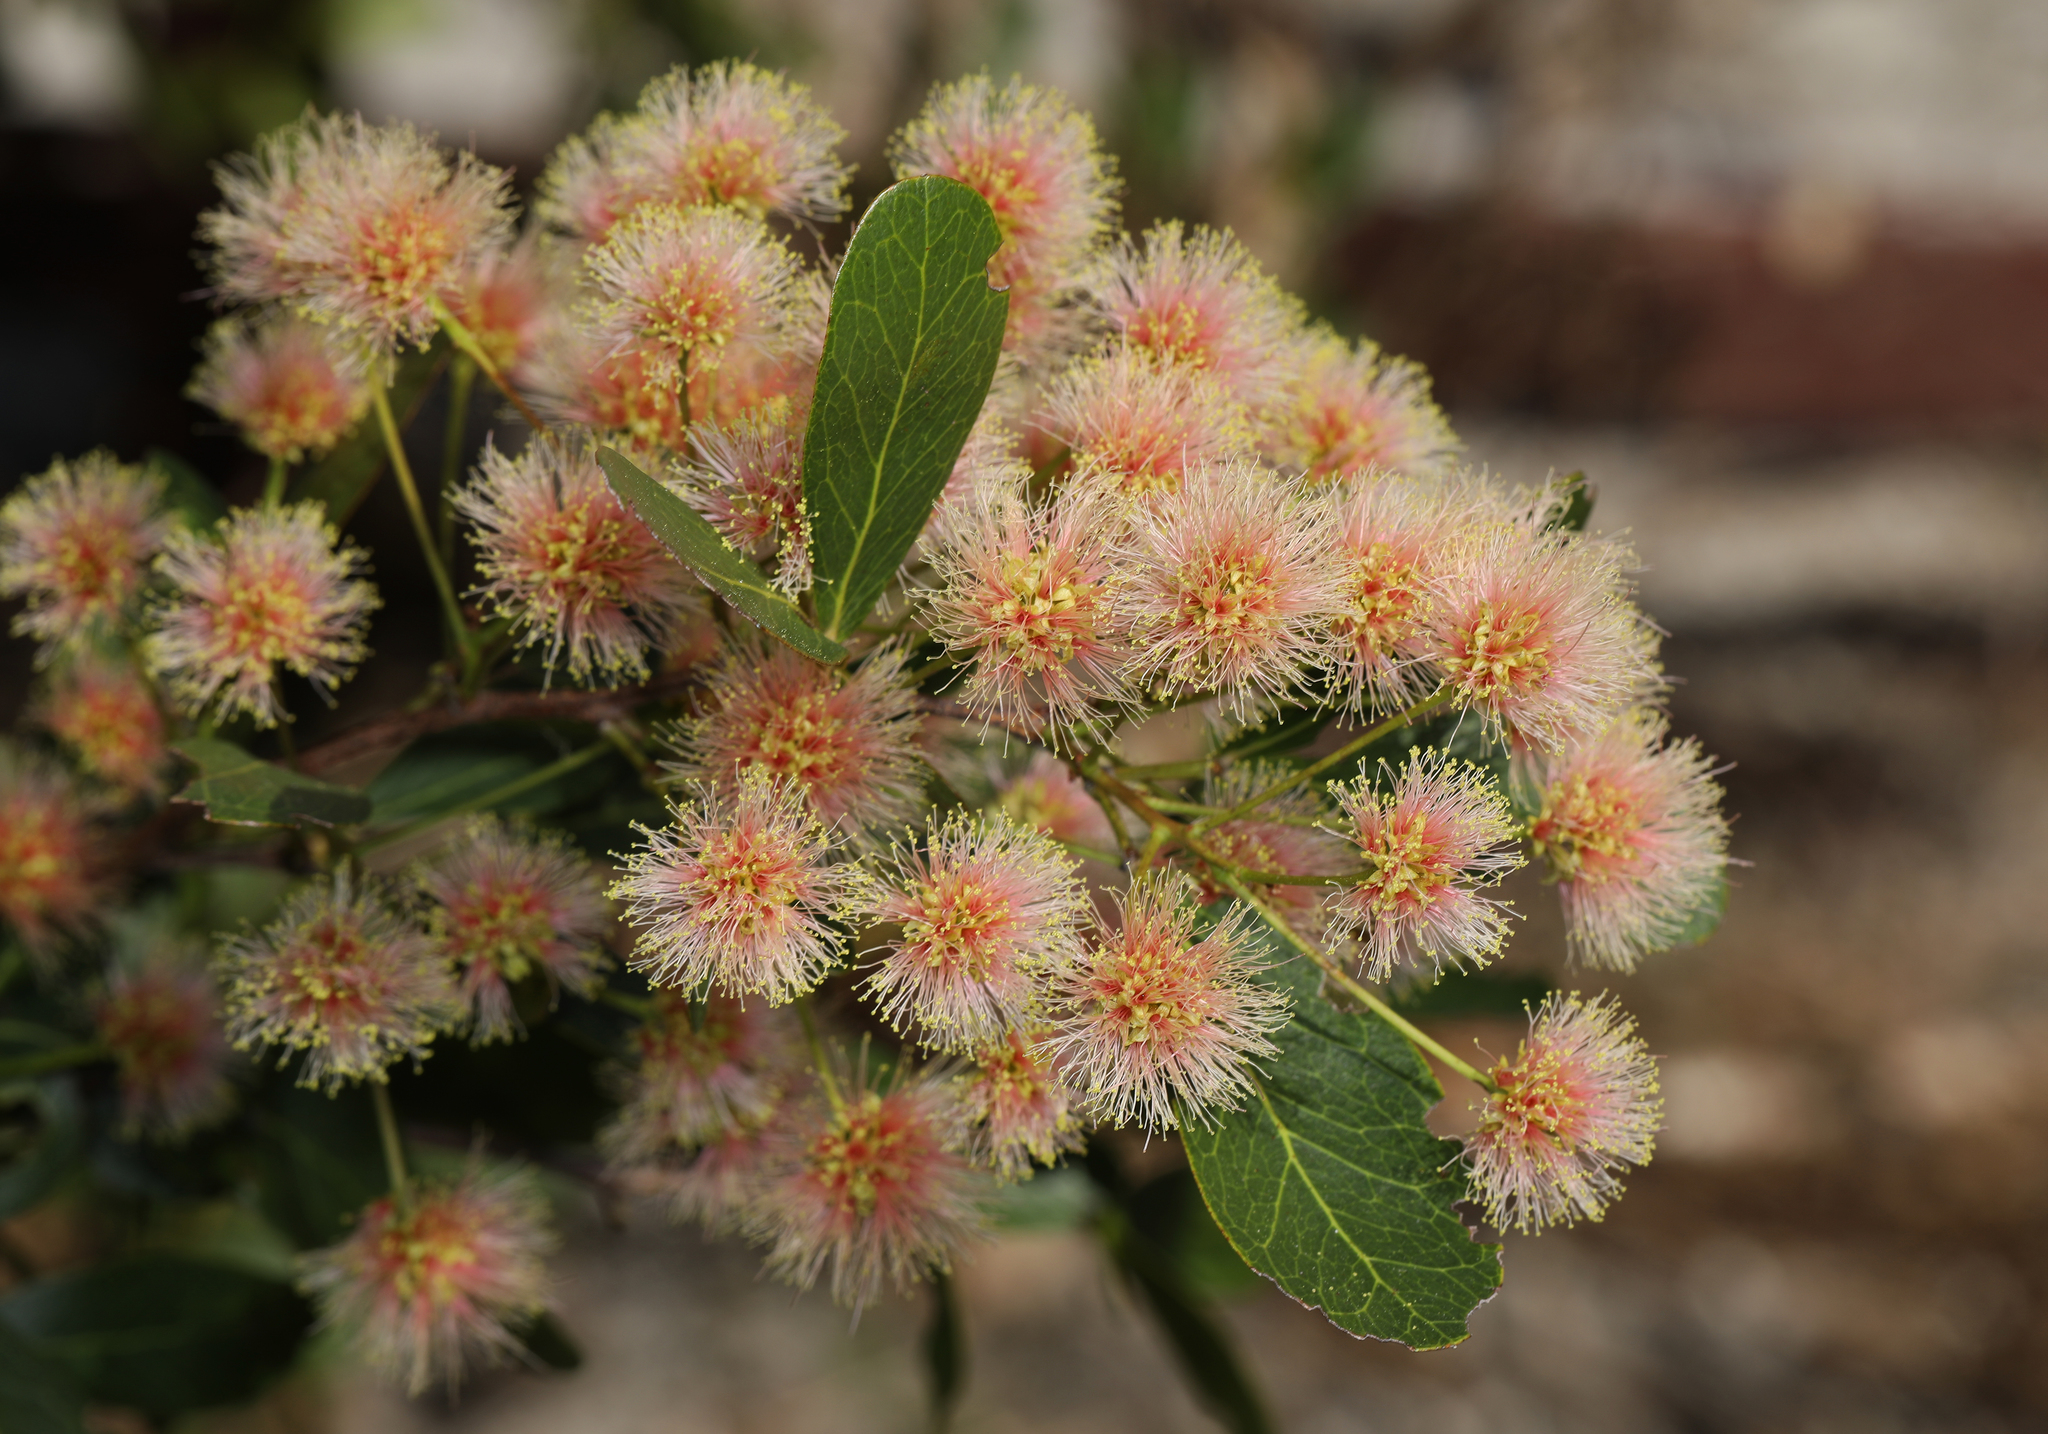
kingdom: Plantae
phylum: Tracheophyta
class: Magnoliopsida
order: Fabales
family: Fabaceae
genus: Pithecellobium
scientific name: Pithecellobium keyense
